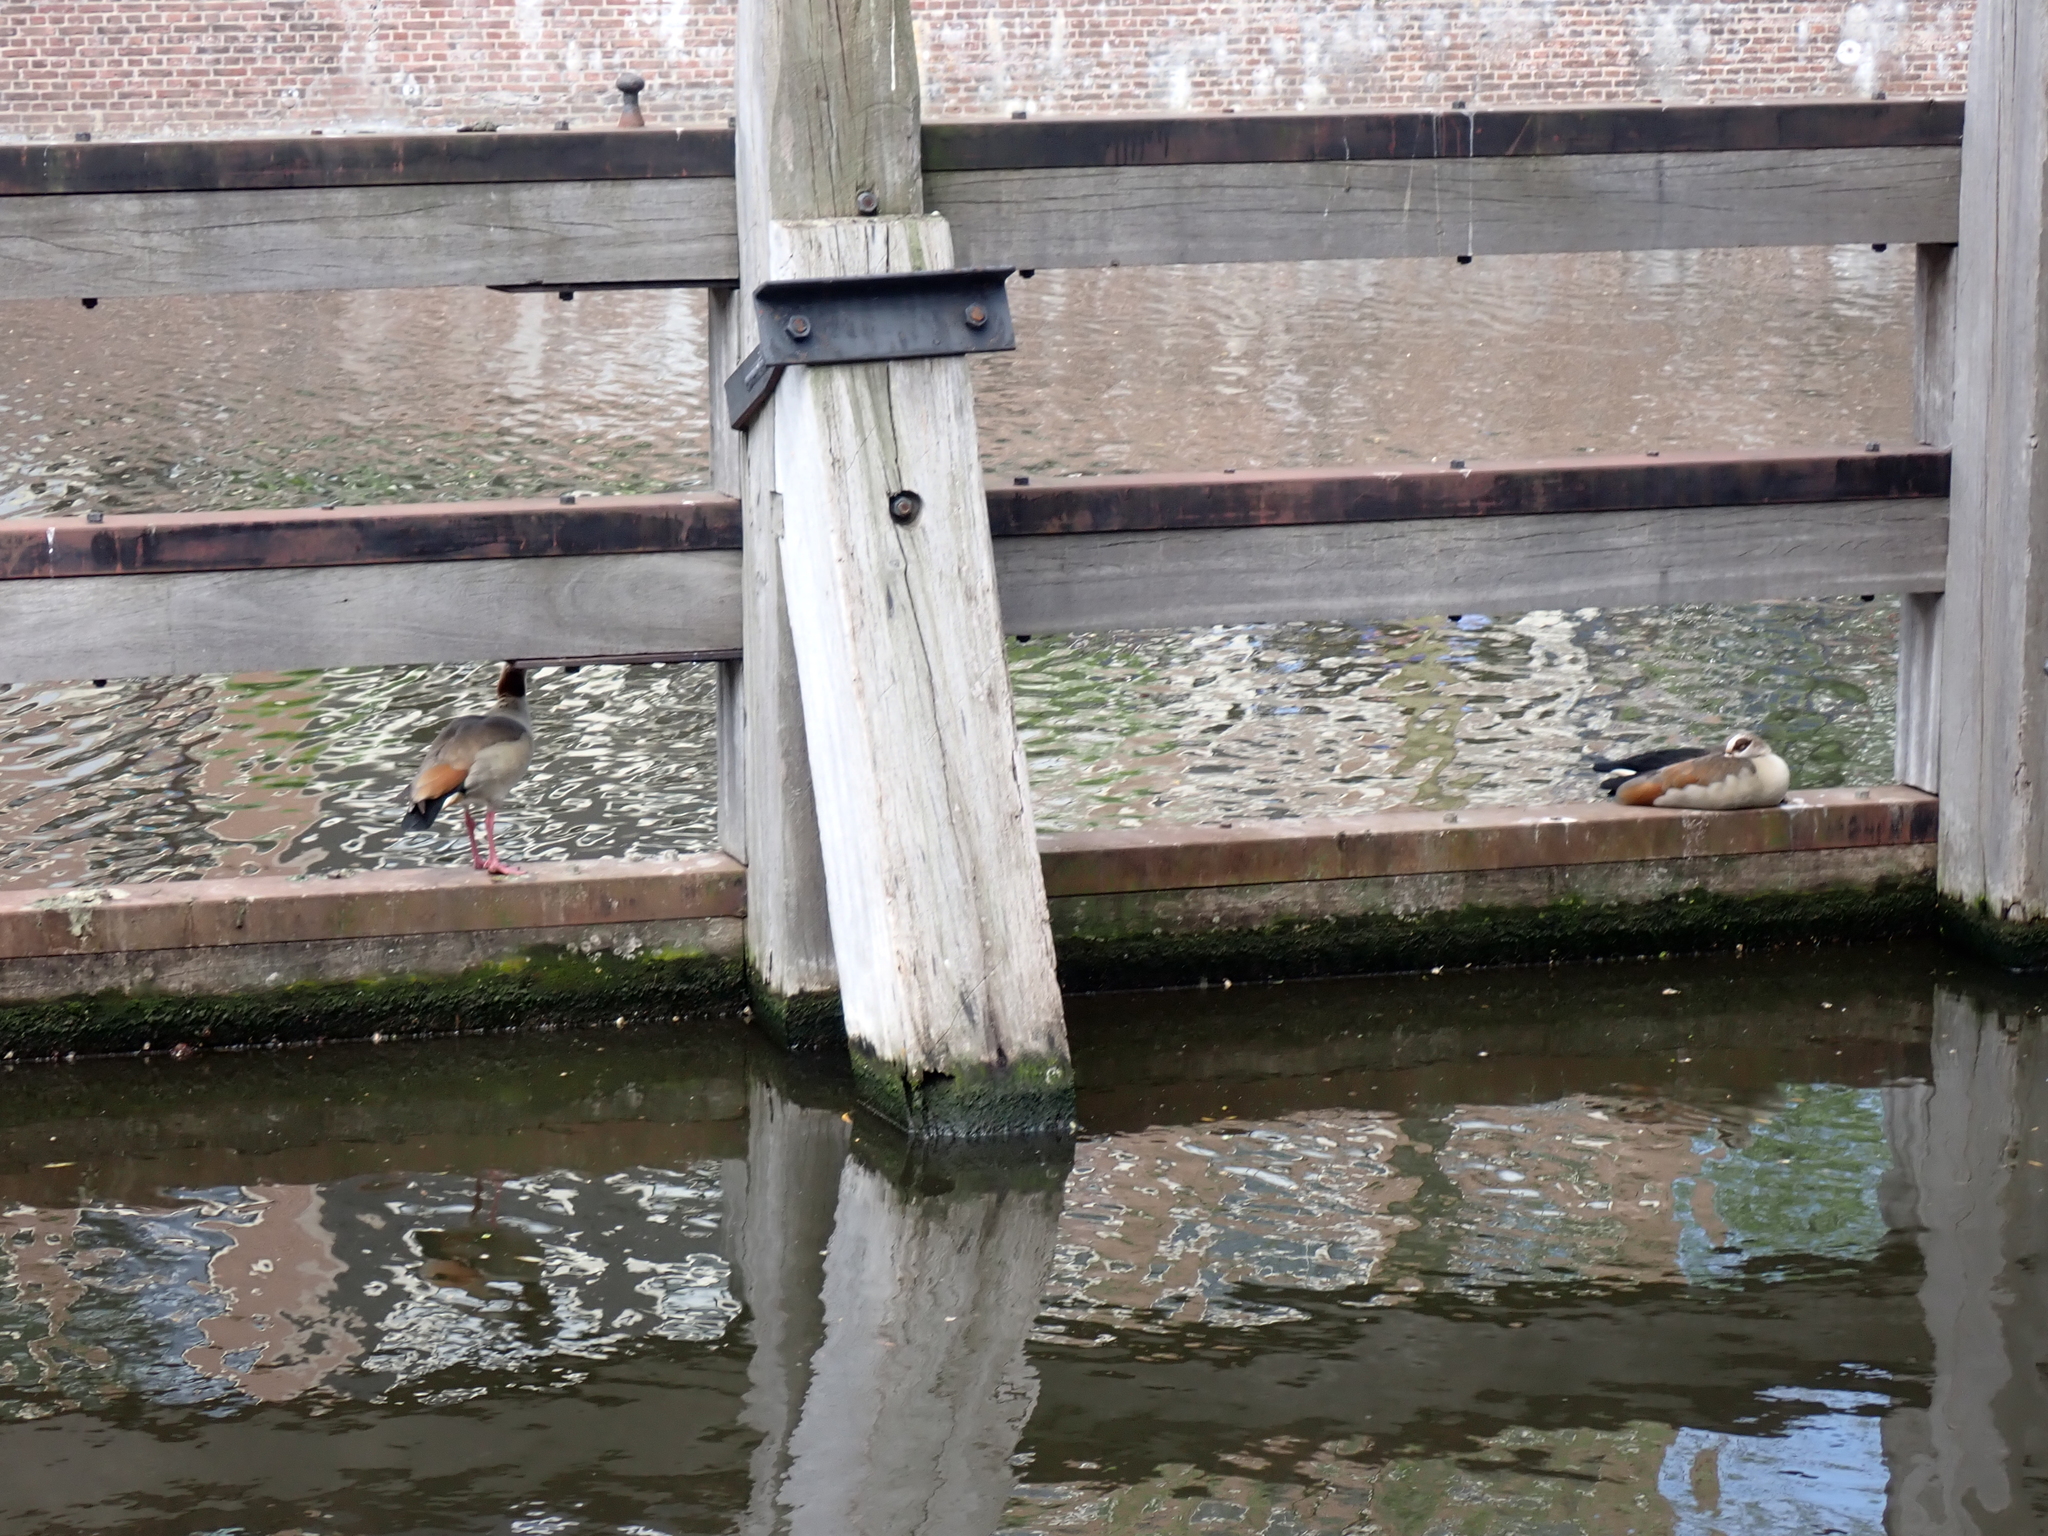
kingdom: Animalia
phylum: Chordata
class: Aves
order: Anseriformes
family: Anatidae
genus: Alopochen
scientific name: Alopochen aegyptiaca
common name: Egyptian goose
